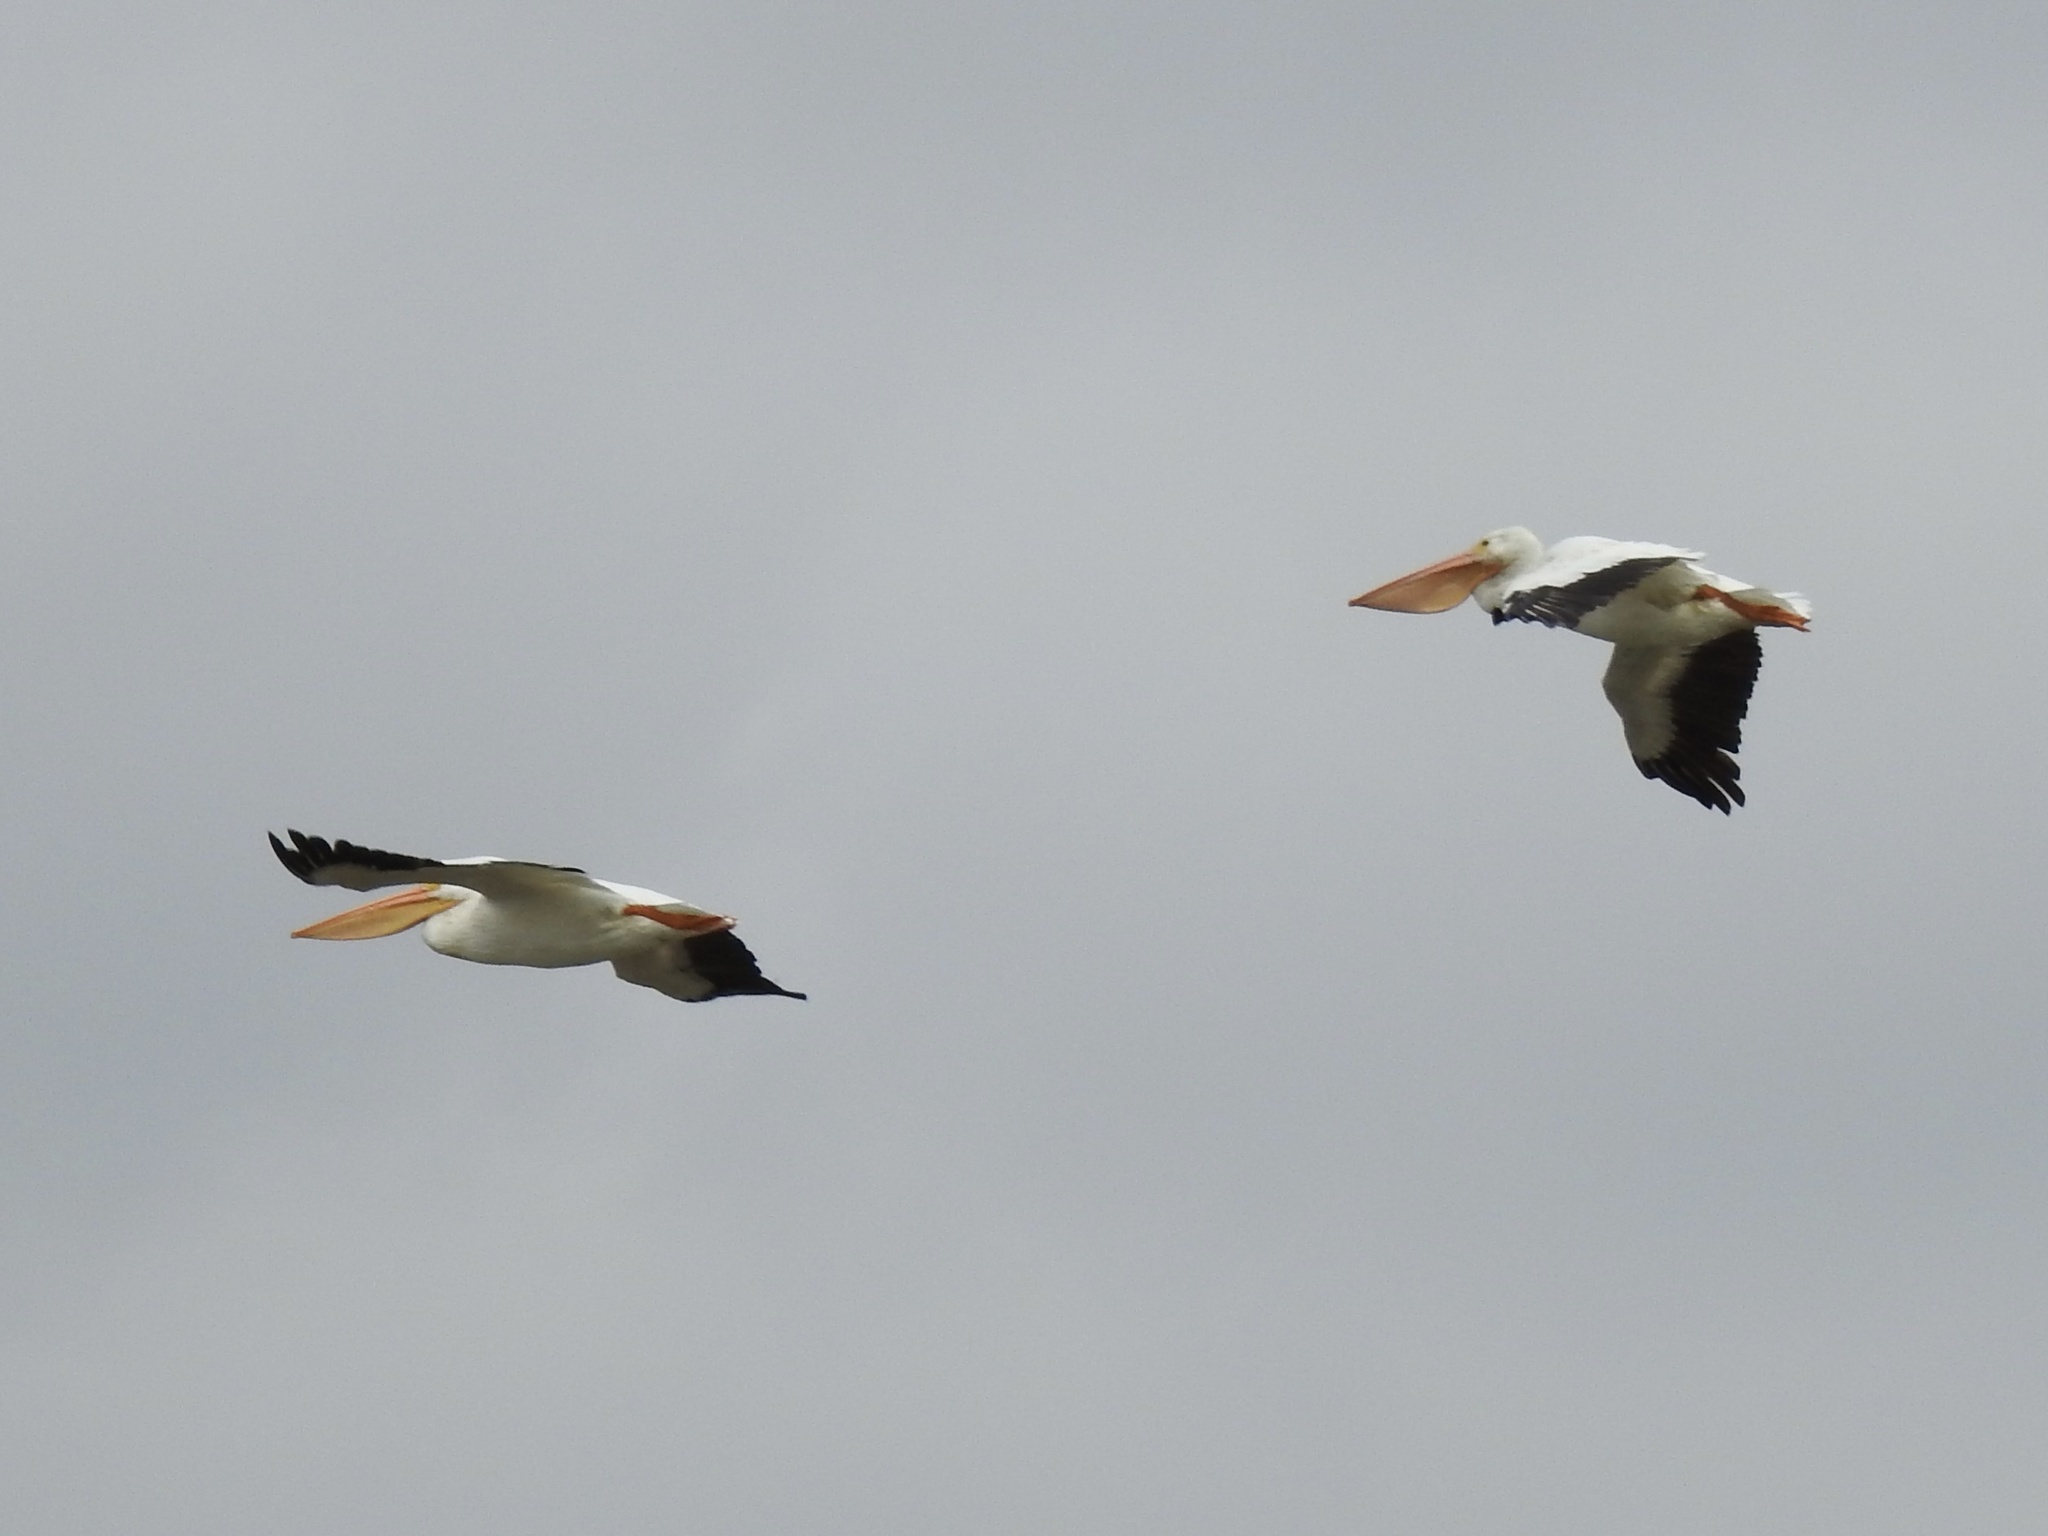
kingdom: Animalia
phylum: Chordata
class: Aves
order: Pelecaniformes
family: Pelecanidae
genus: Pelecanus
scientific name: Pelecanus erythrorhynchos
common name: American white pelican
